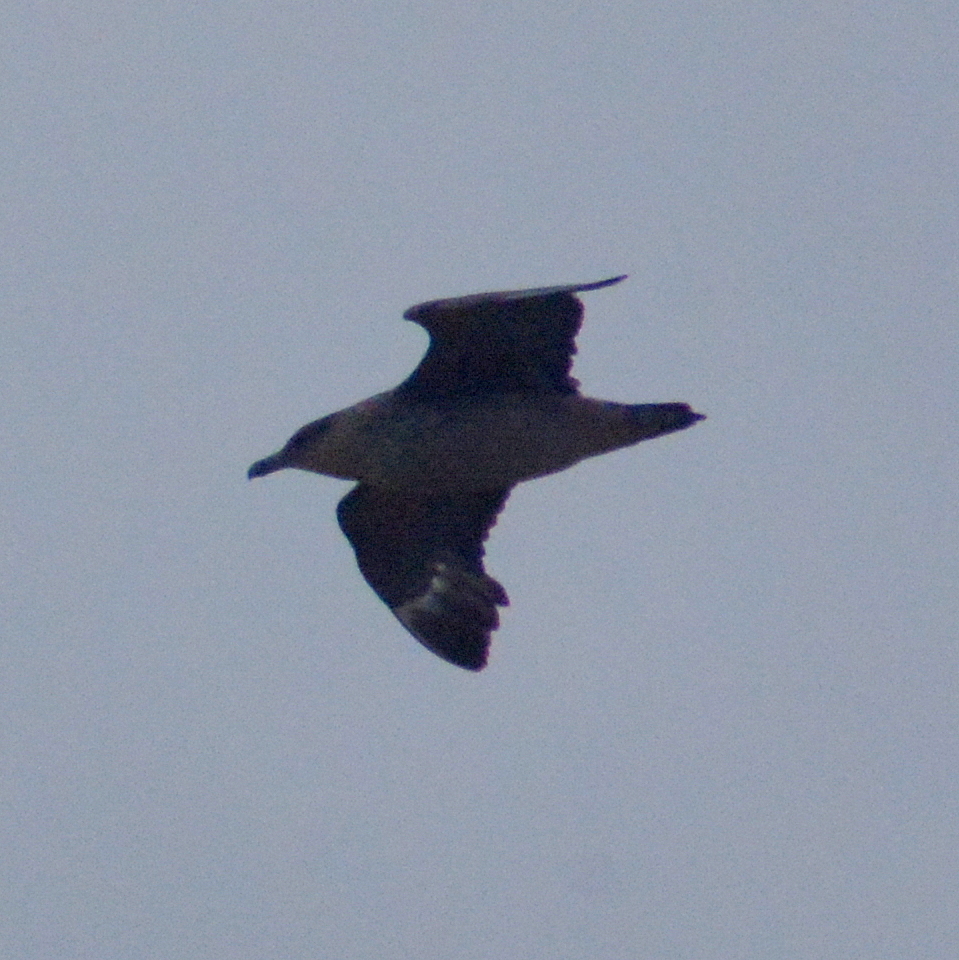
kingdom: Animalia
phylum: Chordata
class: Aves
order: Charadriiformes
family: Stercorariidae
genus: Stercorarius
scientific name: Stercorarius chilensis
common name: Chilean skua
